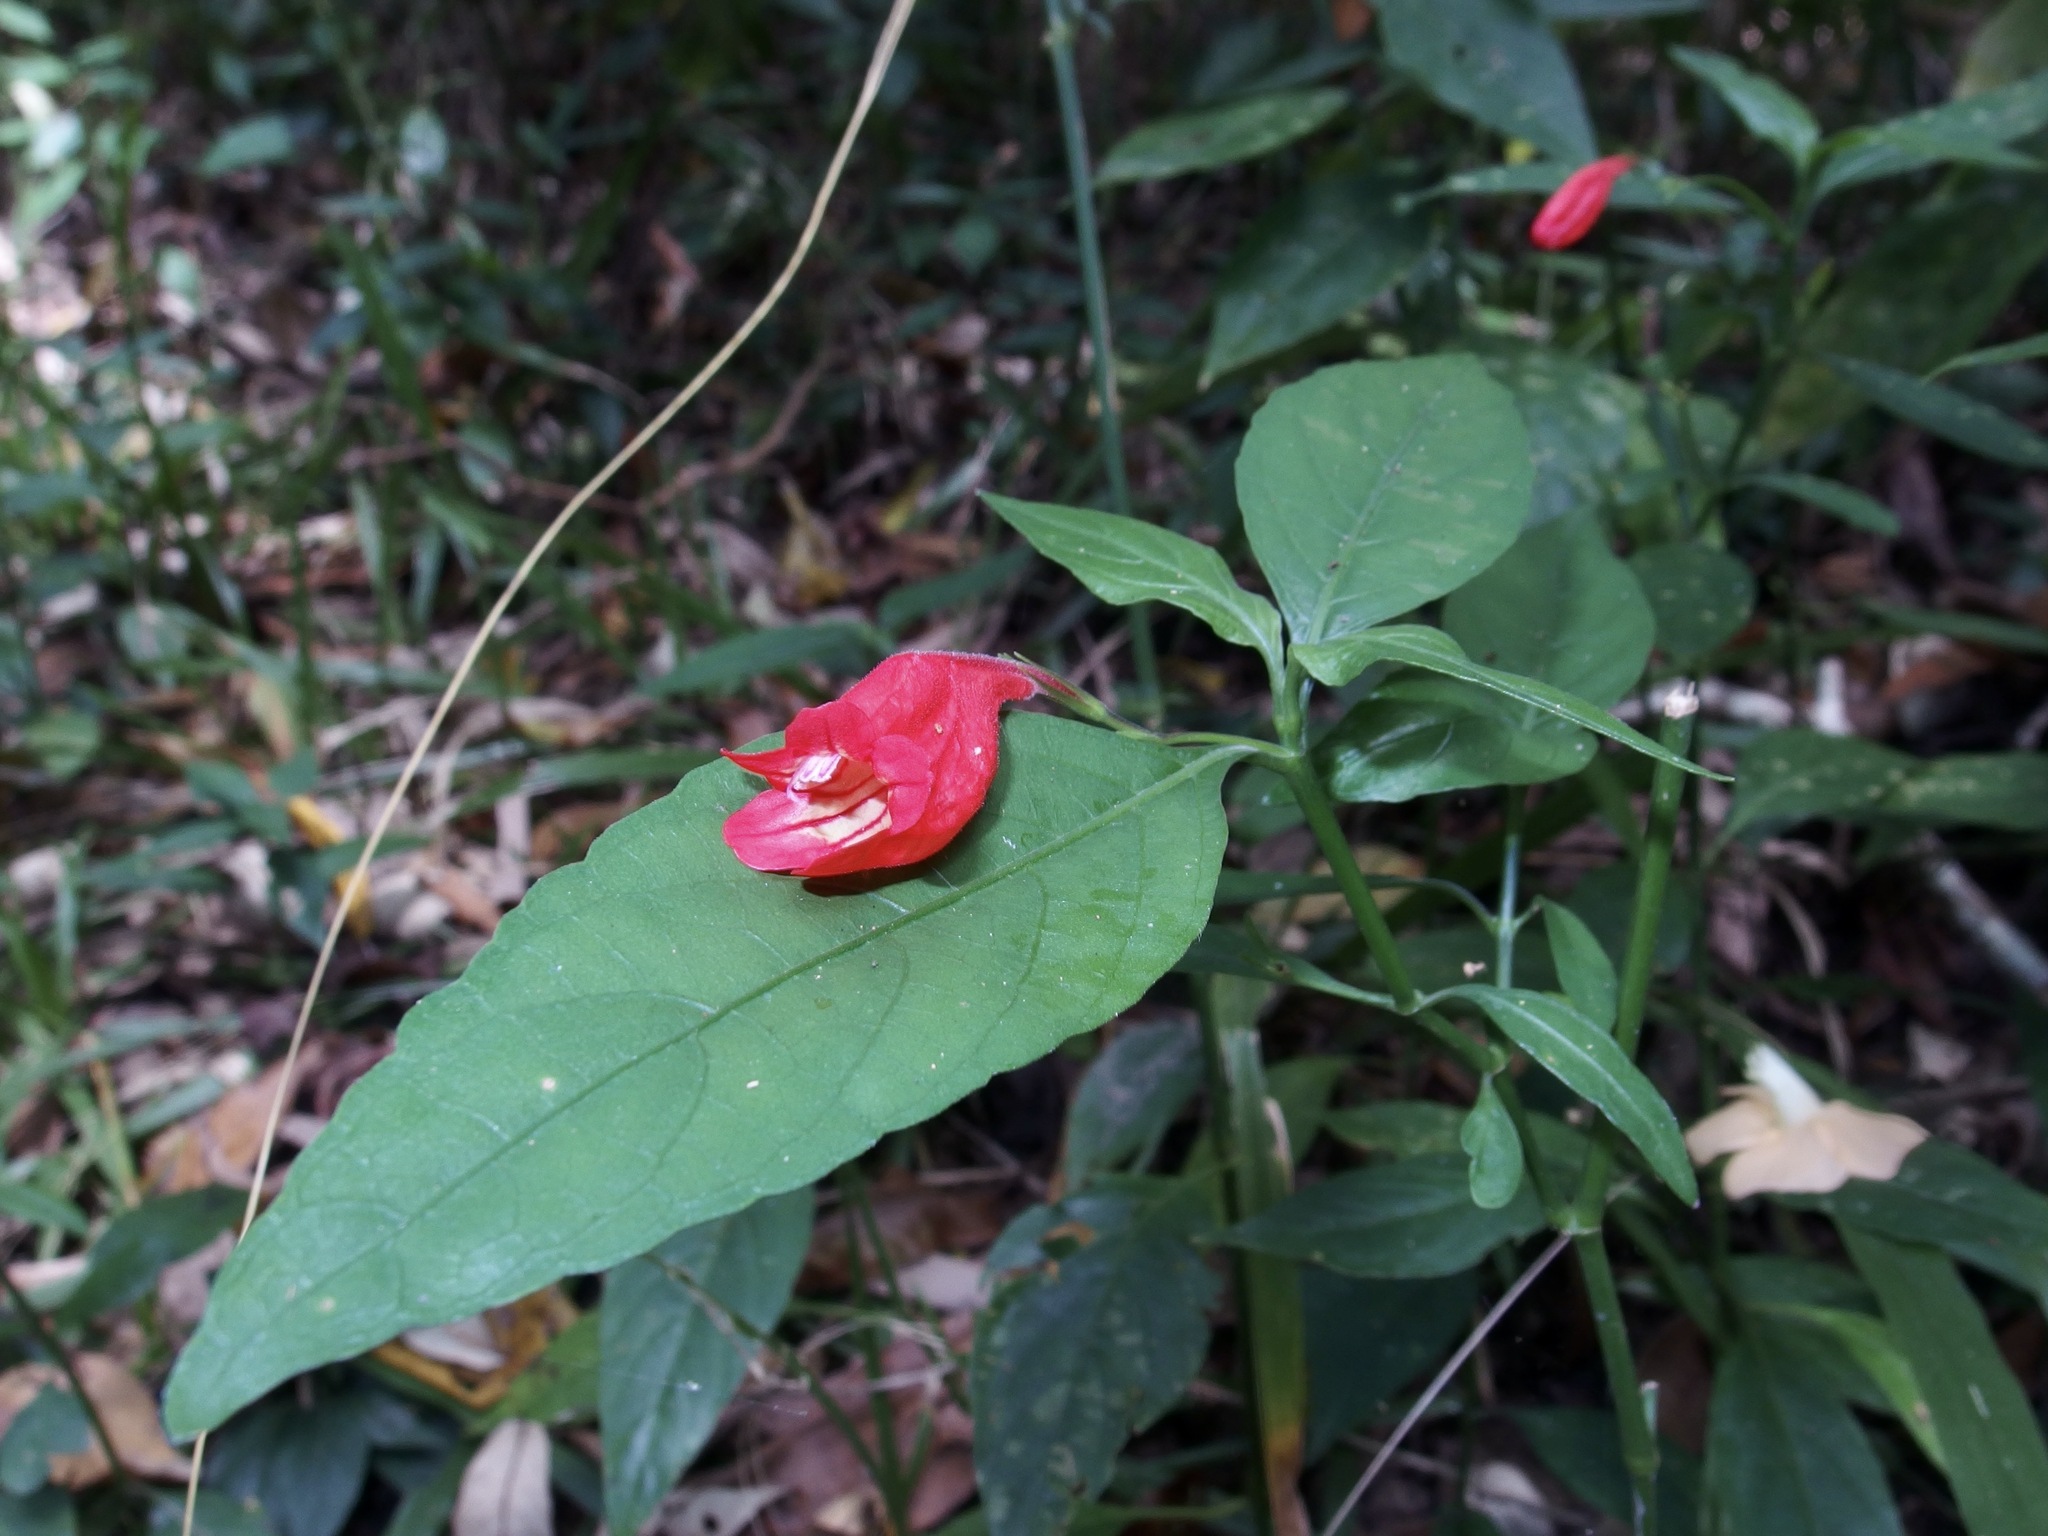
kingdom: Plantae
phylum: Tracheophyta
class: Magnoliopsida
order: Lamiales
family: Acanthaceae
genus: Ruellia
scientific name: Ruellia brevifolia
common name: Tropical wild petunia
